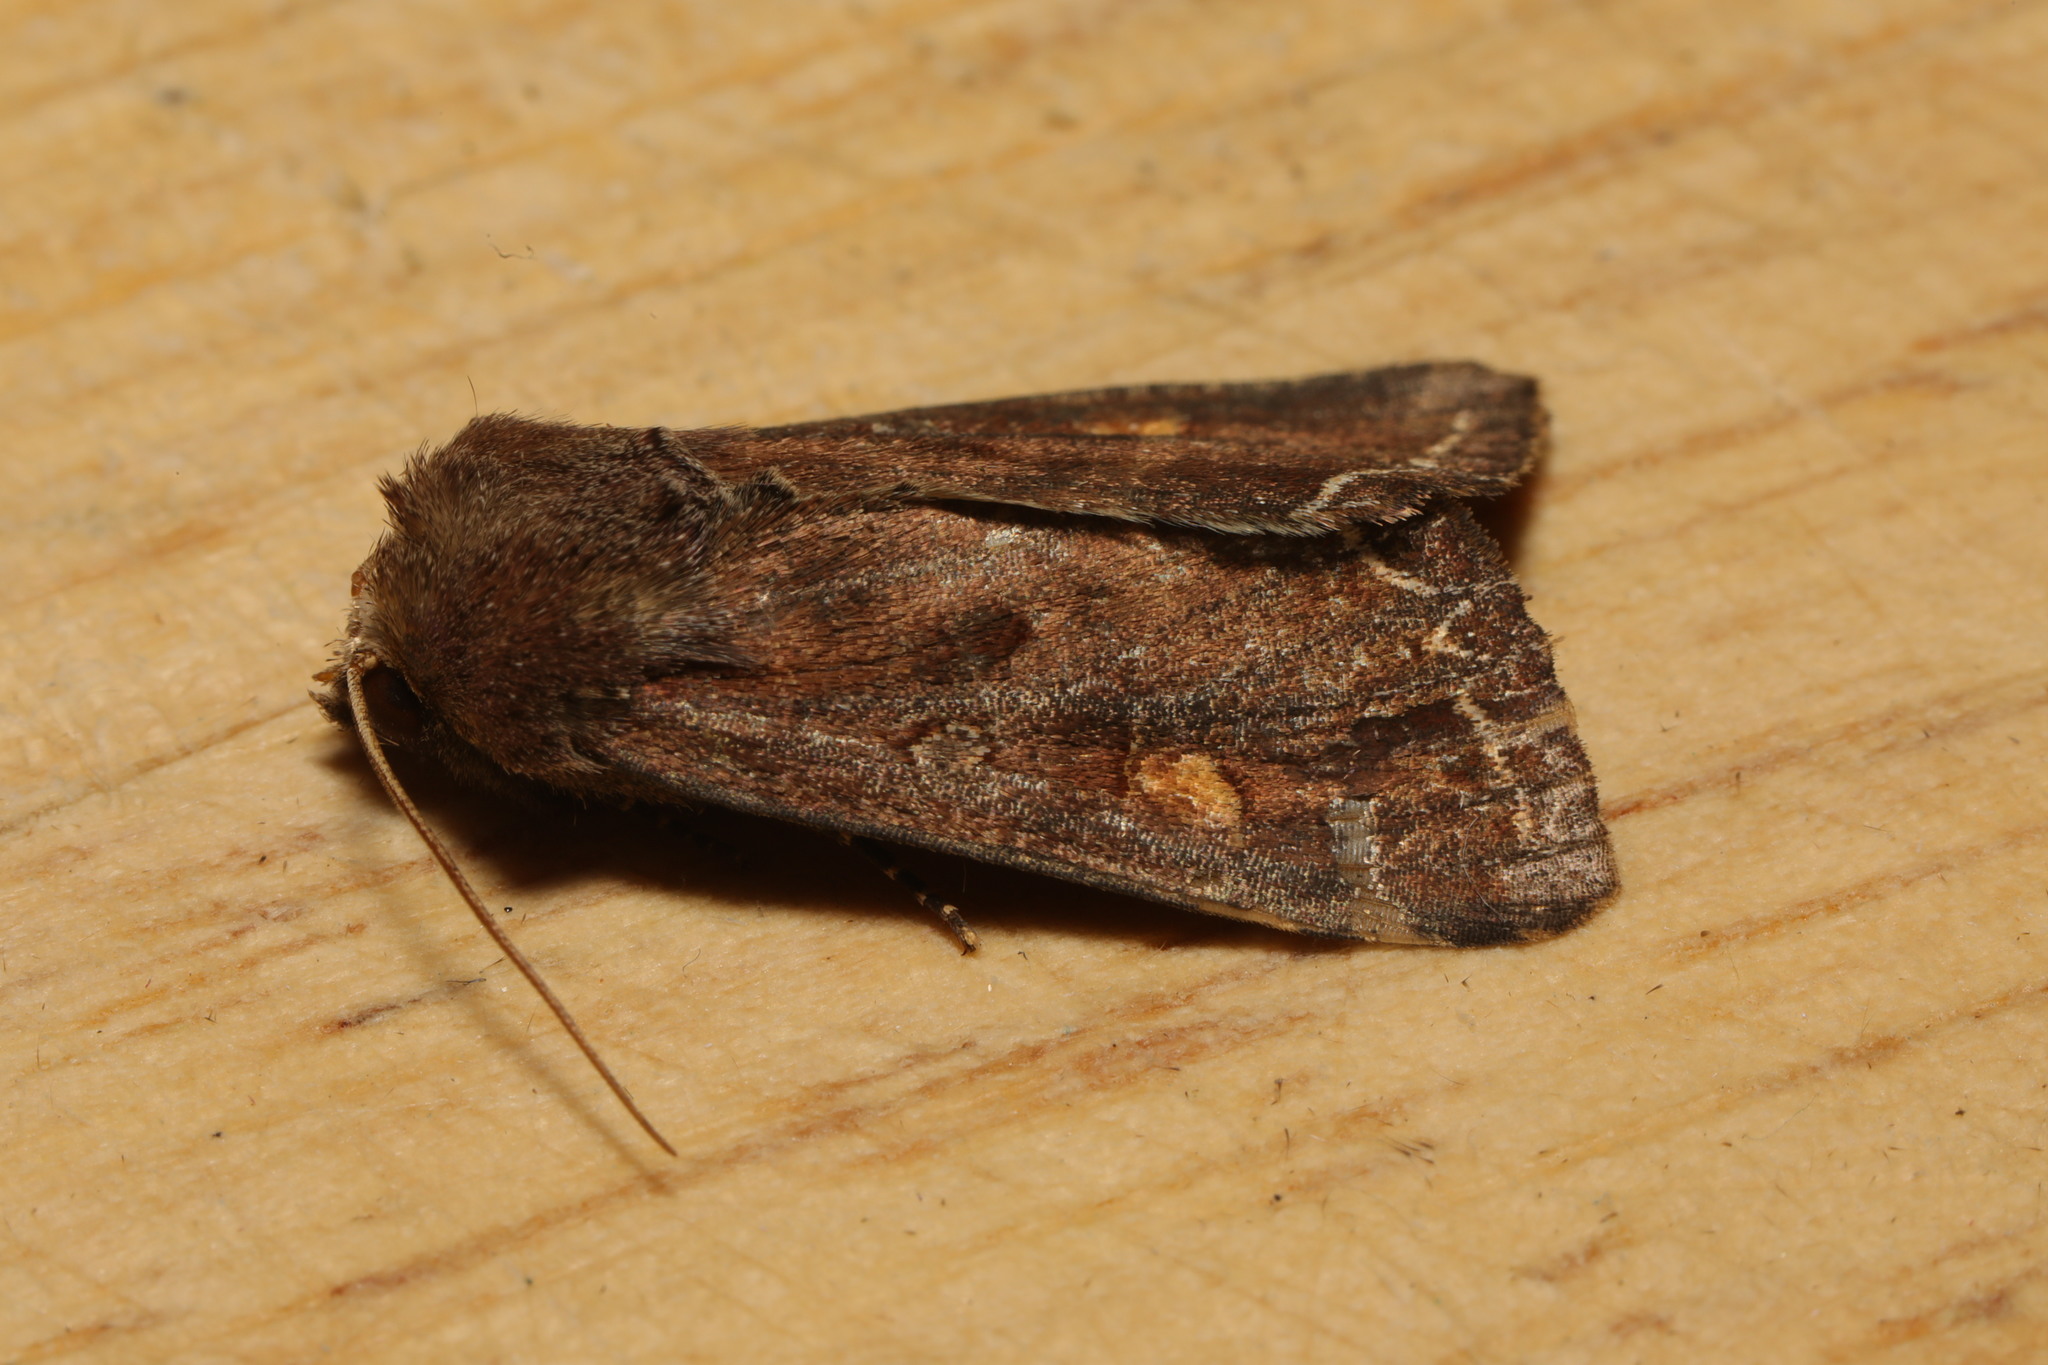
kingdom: Animalia
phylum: Arthropoda
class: Insecta
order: Lepidoptera
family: Noctuidae
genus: Lacanobia
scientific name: Lacanobia oleracea
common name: Bright-line brown-eye
